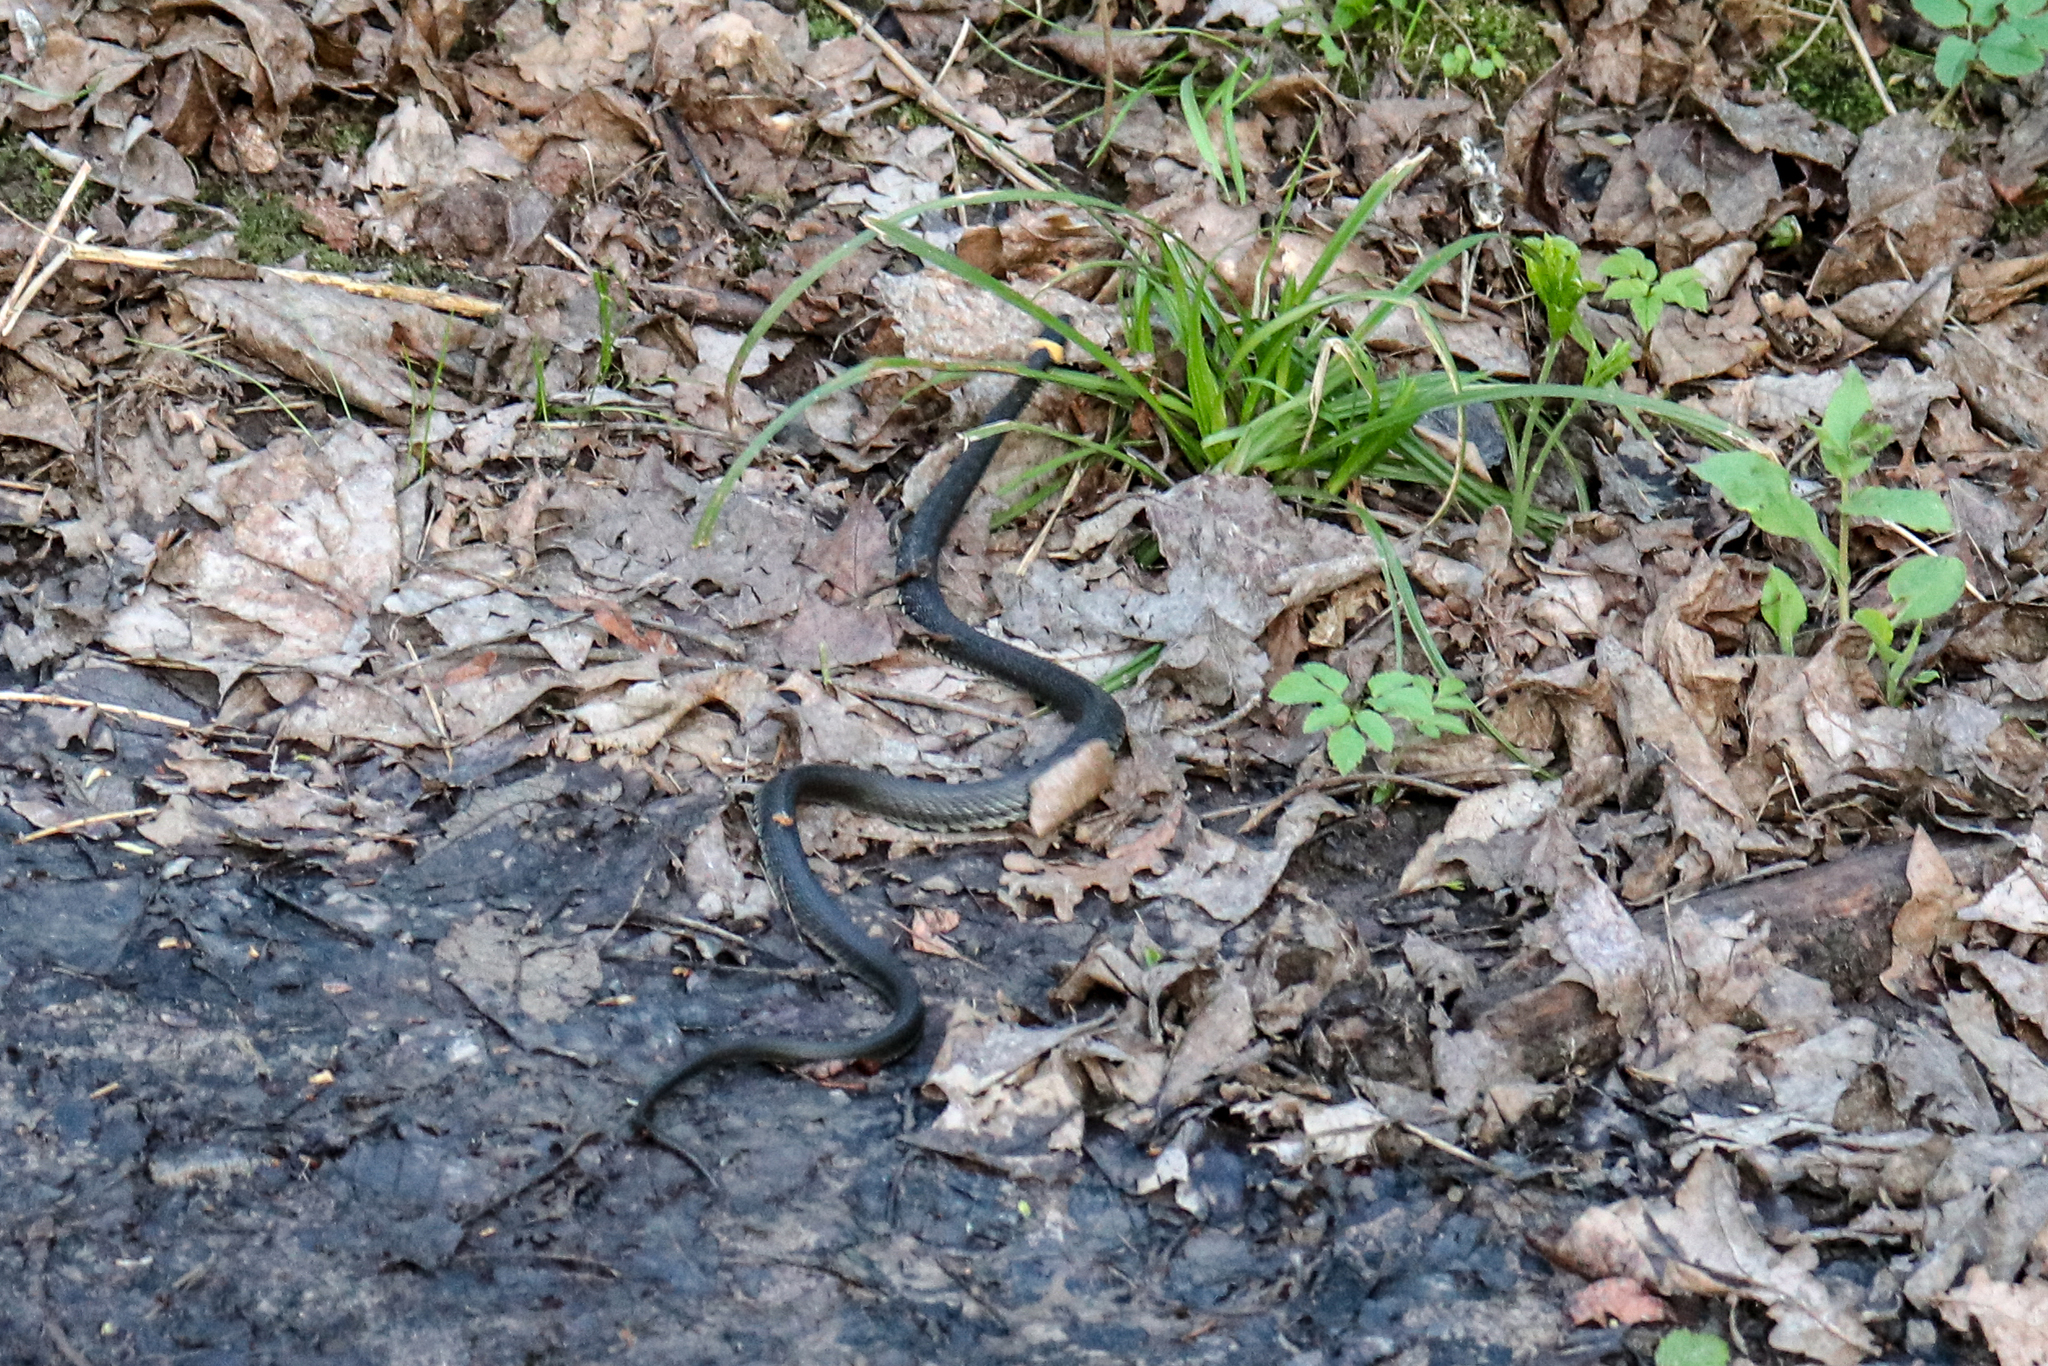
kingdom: Animalia
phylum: Chordata
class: Squamata
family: Colubridae
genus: Natrix
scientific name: Natrix natrix
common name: Grass snake
